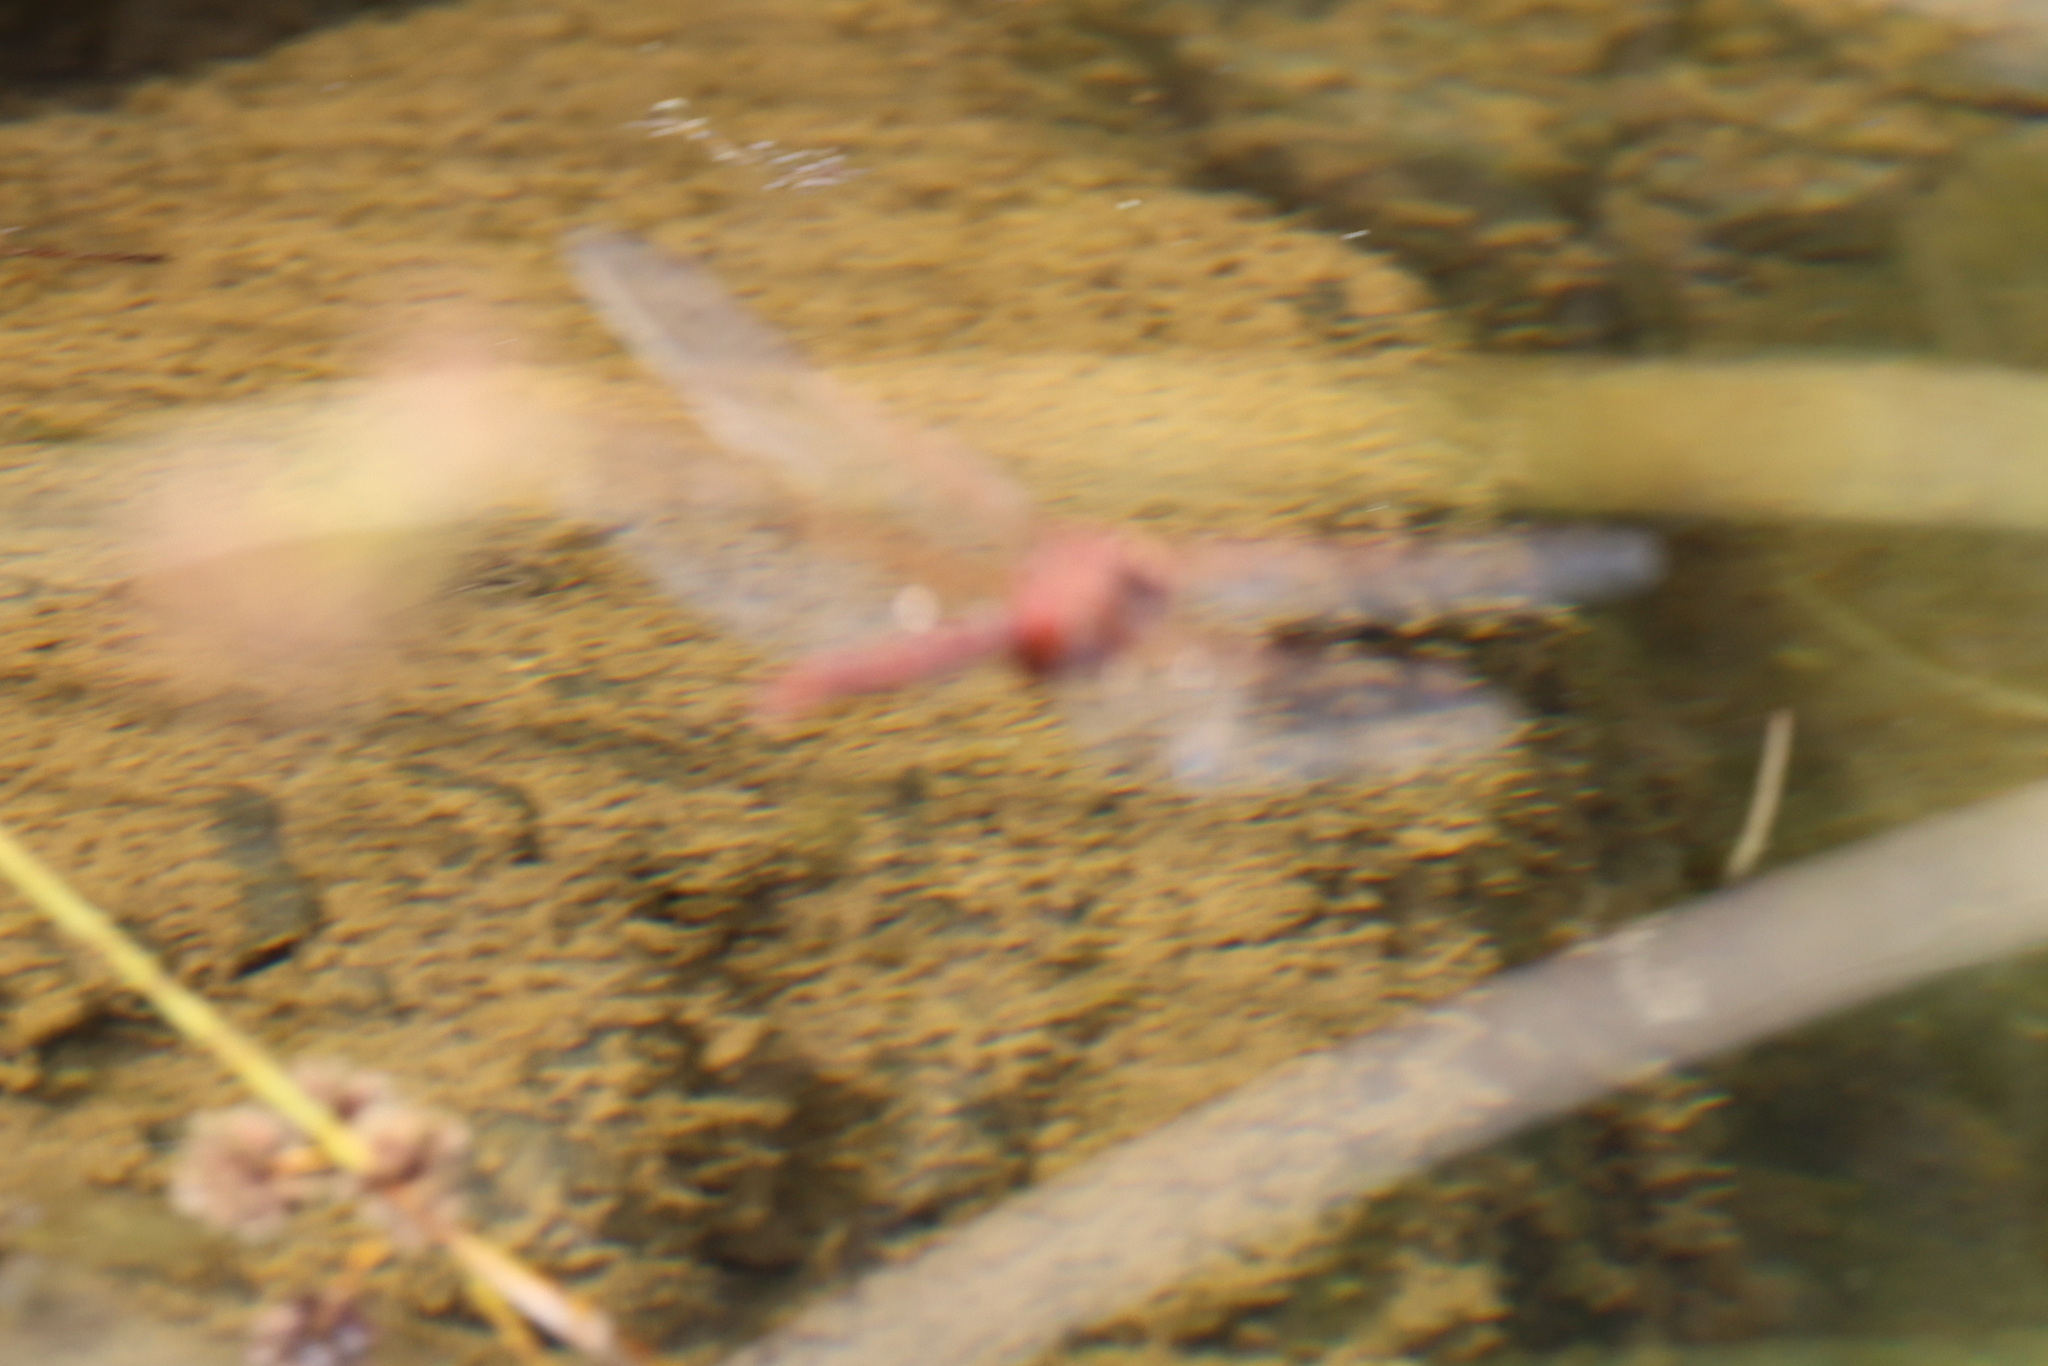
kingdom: Animalia
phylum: Arthropoda
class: Insecta
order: Odonata
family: Aeshnidae
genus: Anax
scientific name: Anax speratus
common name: Orange emperor
